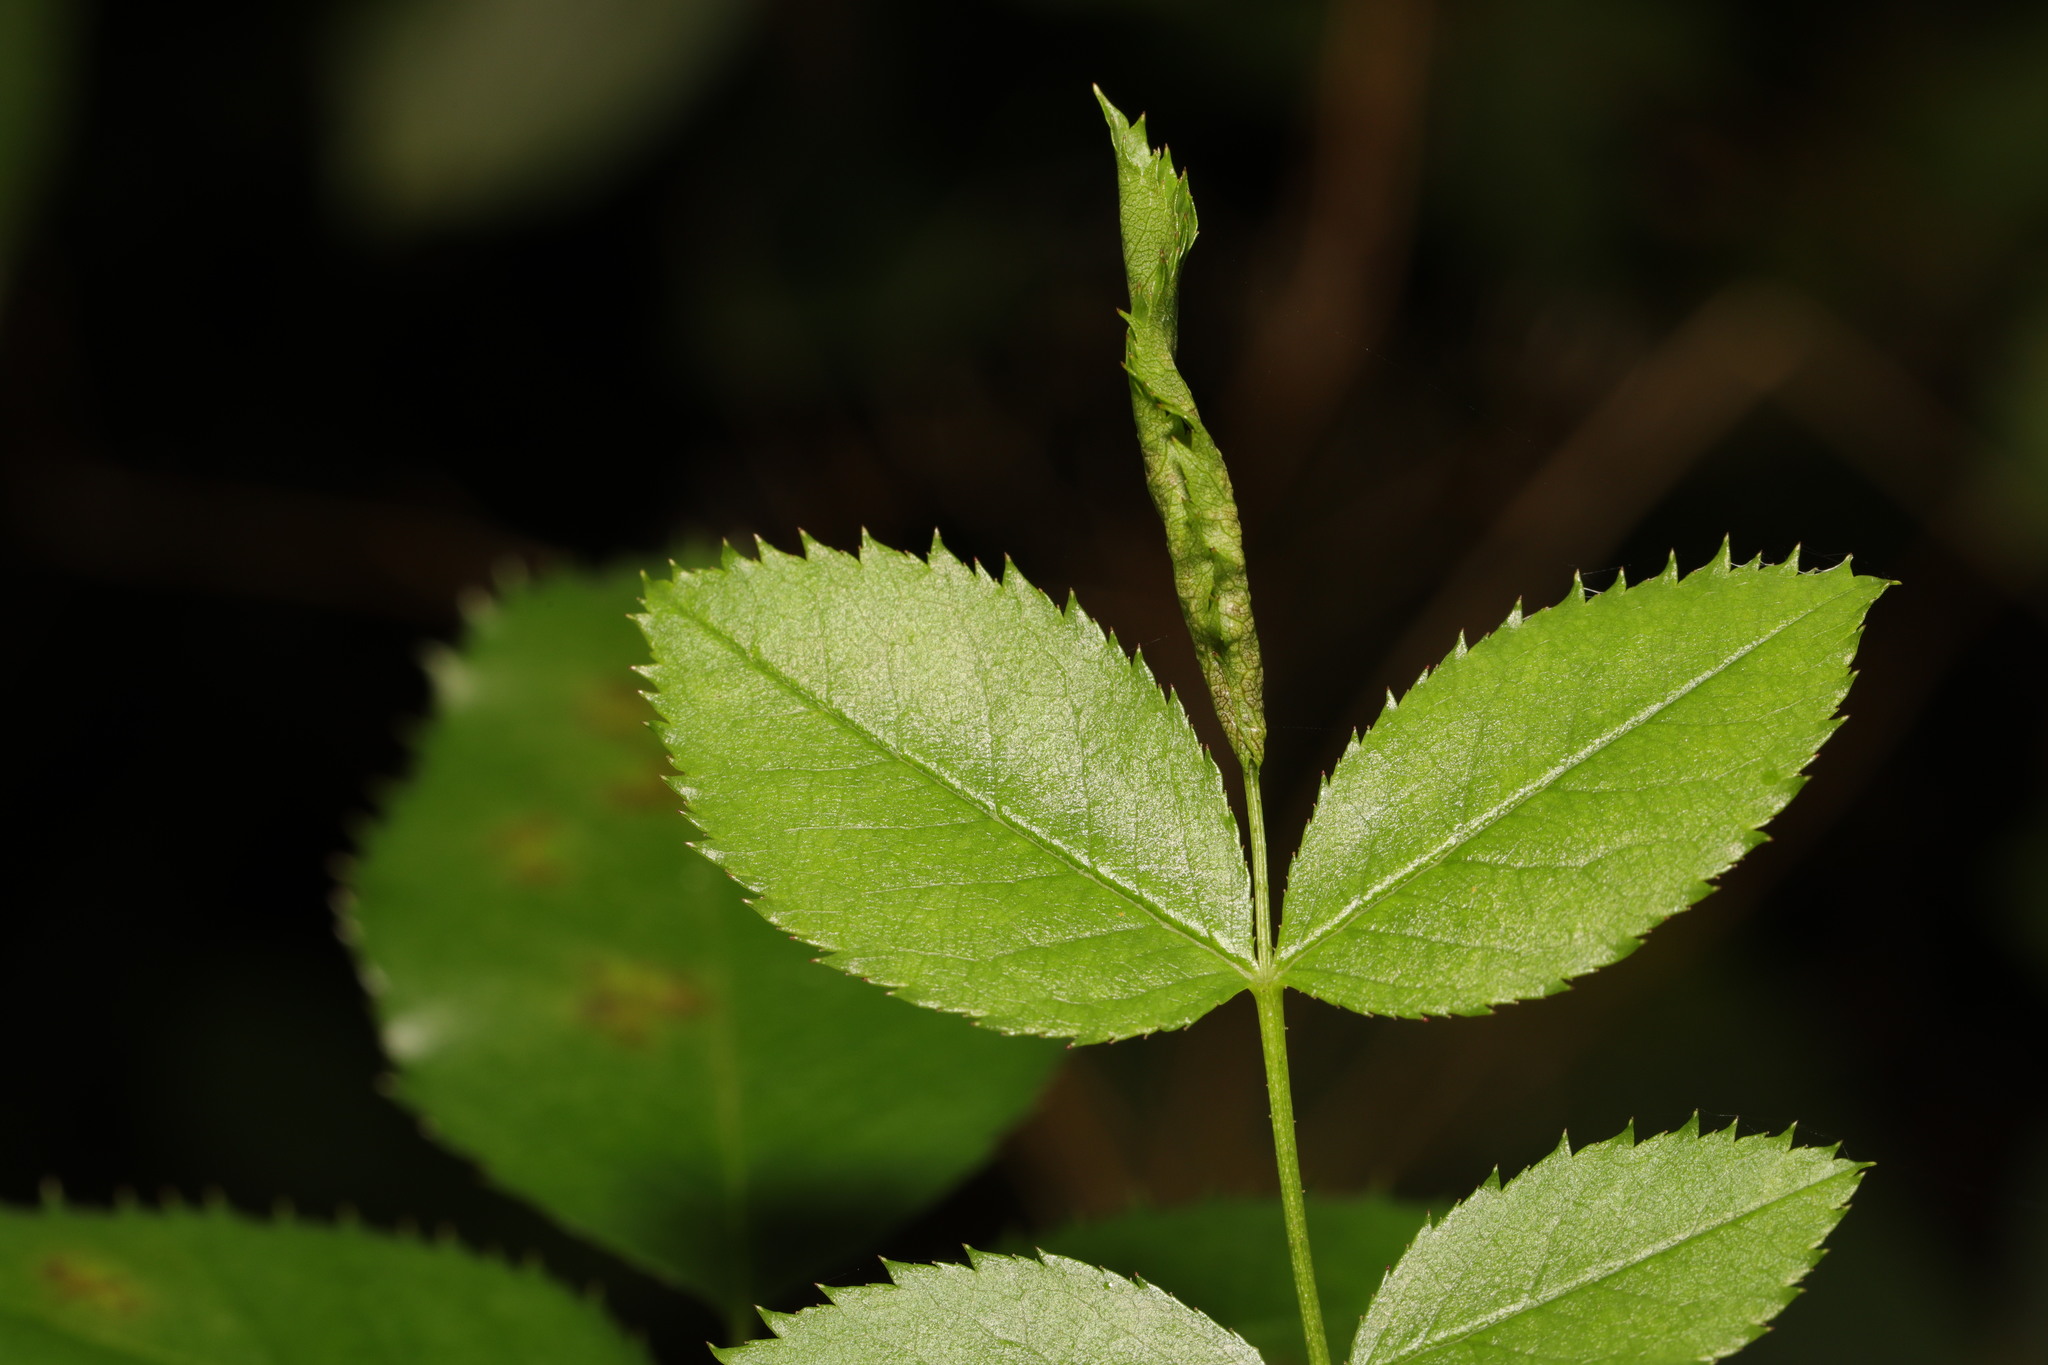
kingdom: Animalia
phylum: Arthropoda
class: Insecta
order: Diptera
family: Cecidomyiidae
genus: Wachtliella
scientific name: Wachtliella rosae
